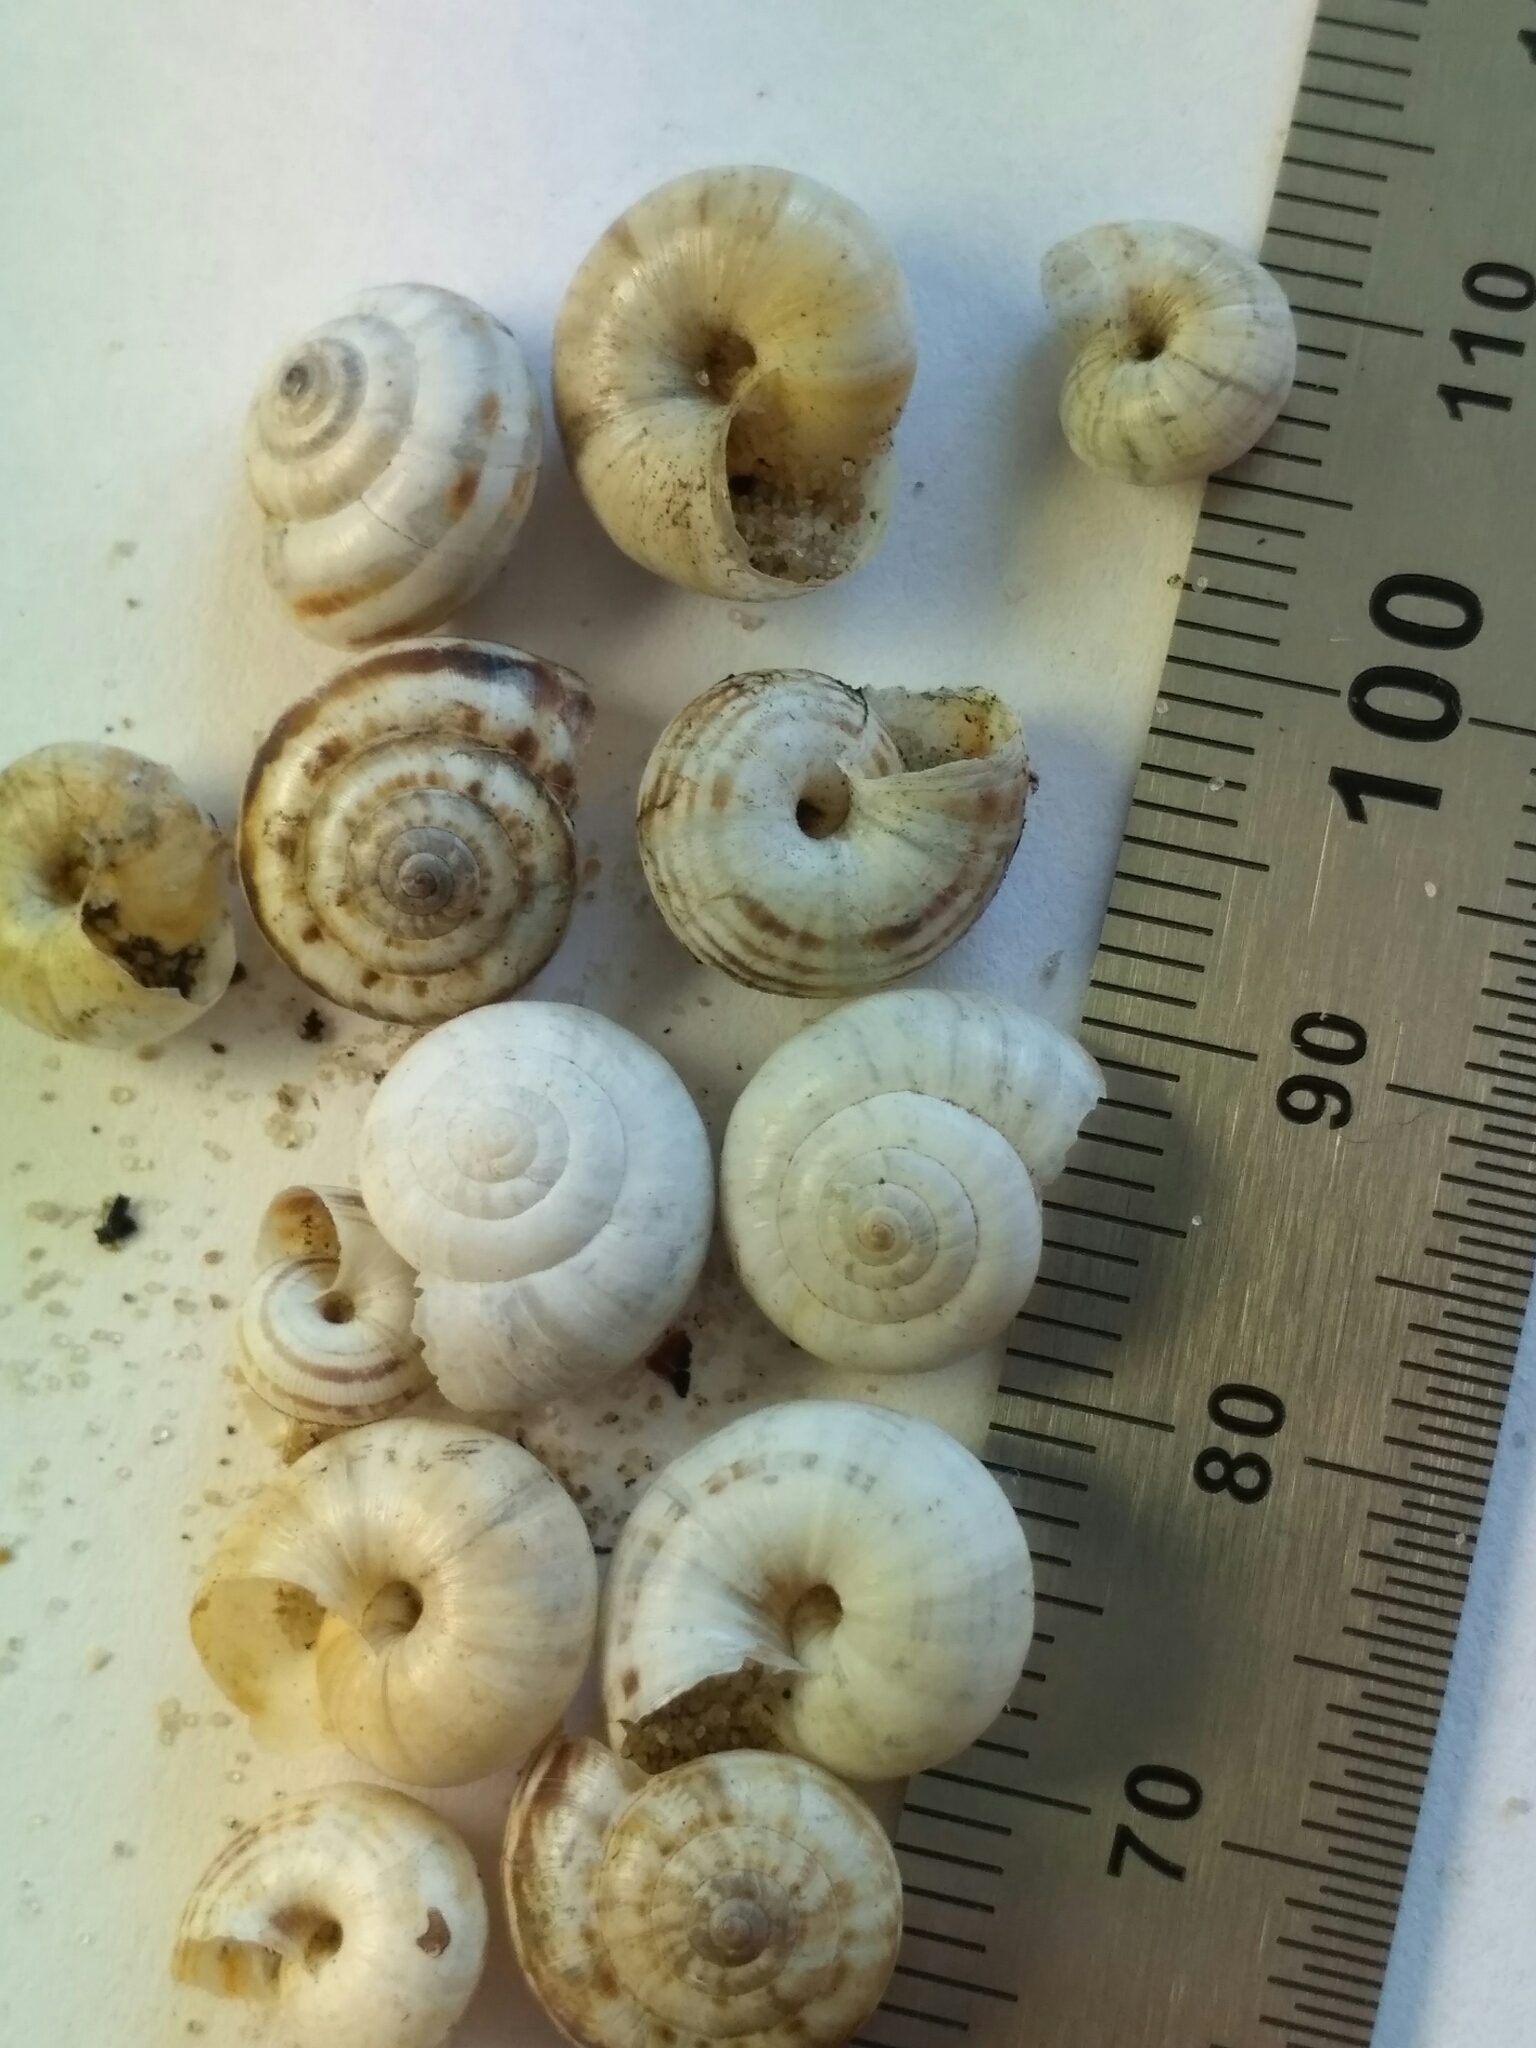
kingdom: Animalia
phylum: Mollusca
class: Gastropoda
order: Stylommatophora
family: Geomitridae
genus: Xeropicta
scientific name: Xeropicta krynickii
